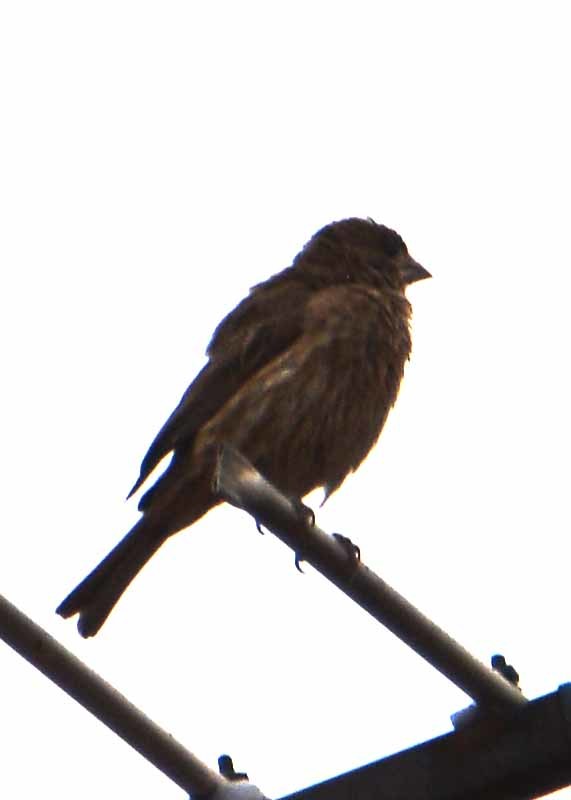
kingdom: Animalia
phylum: Chordata
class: Aves
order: Passeriformes
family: Fringillidae
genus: Haemorhous
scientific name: Haemorhous mexicanus
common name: House finch
